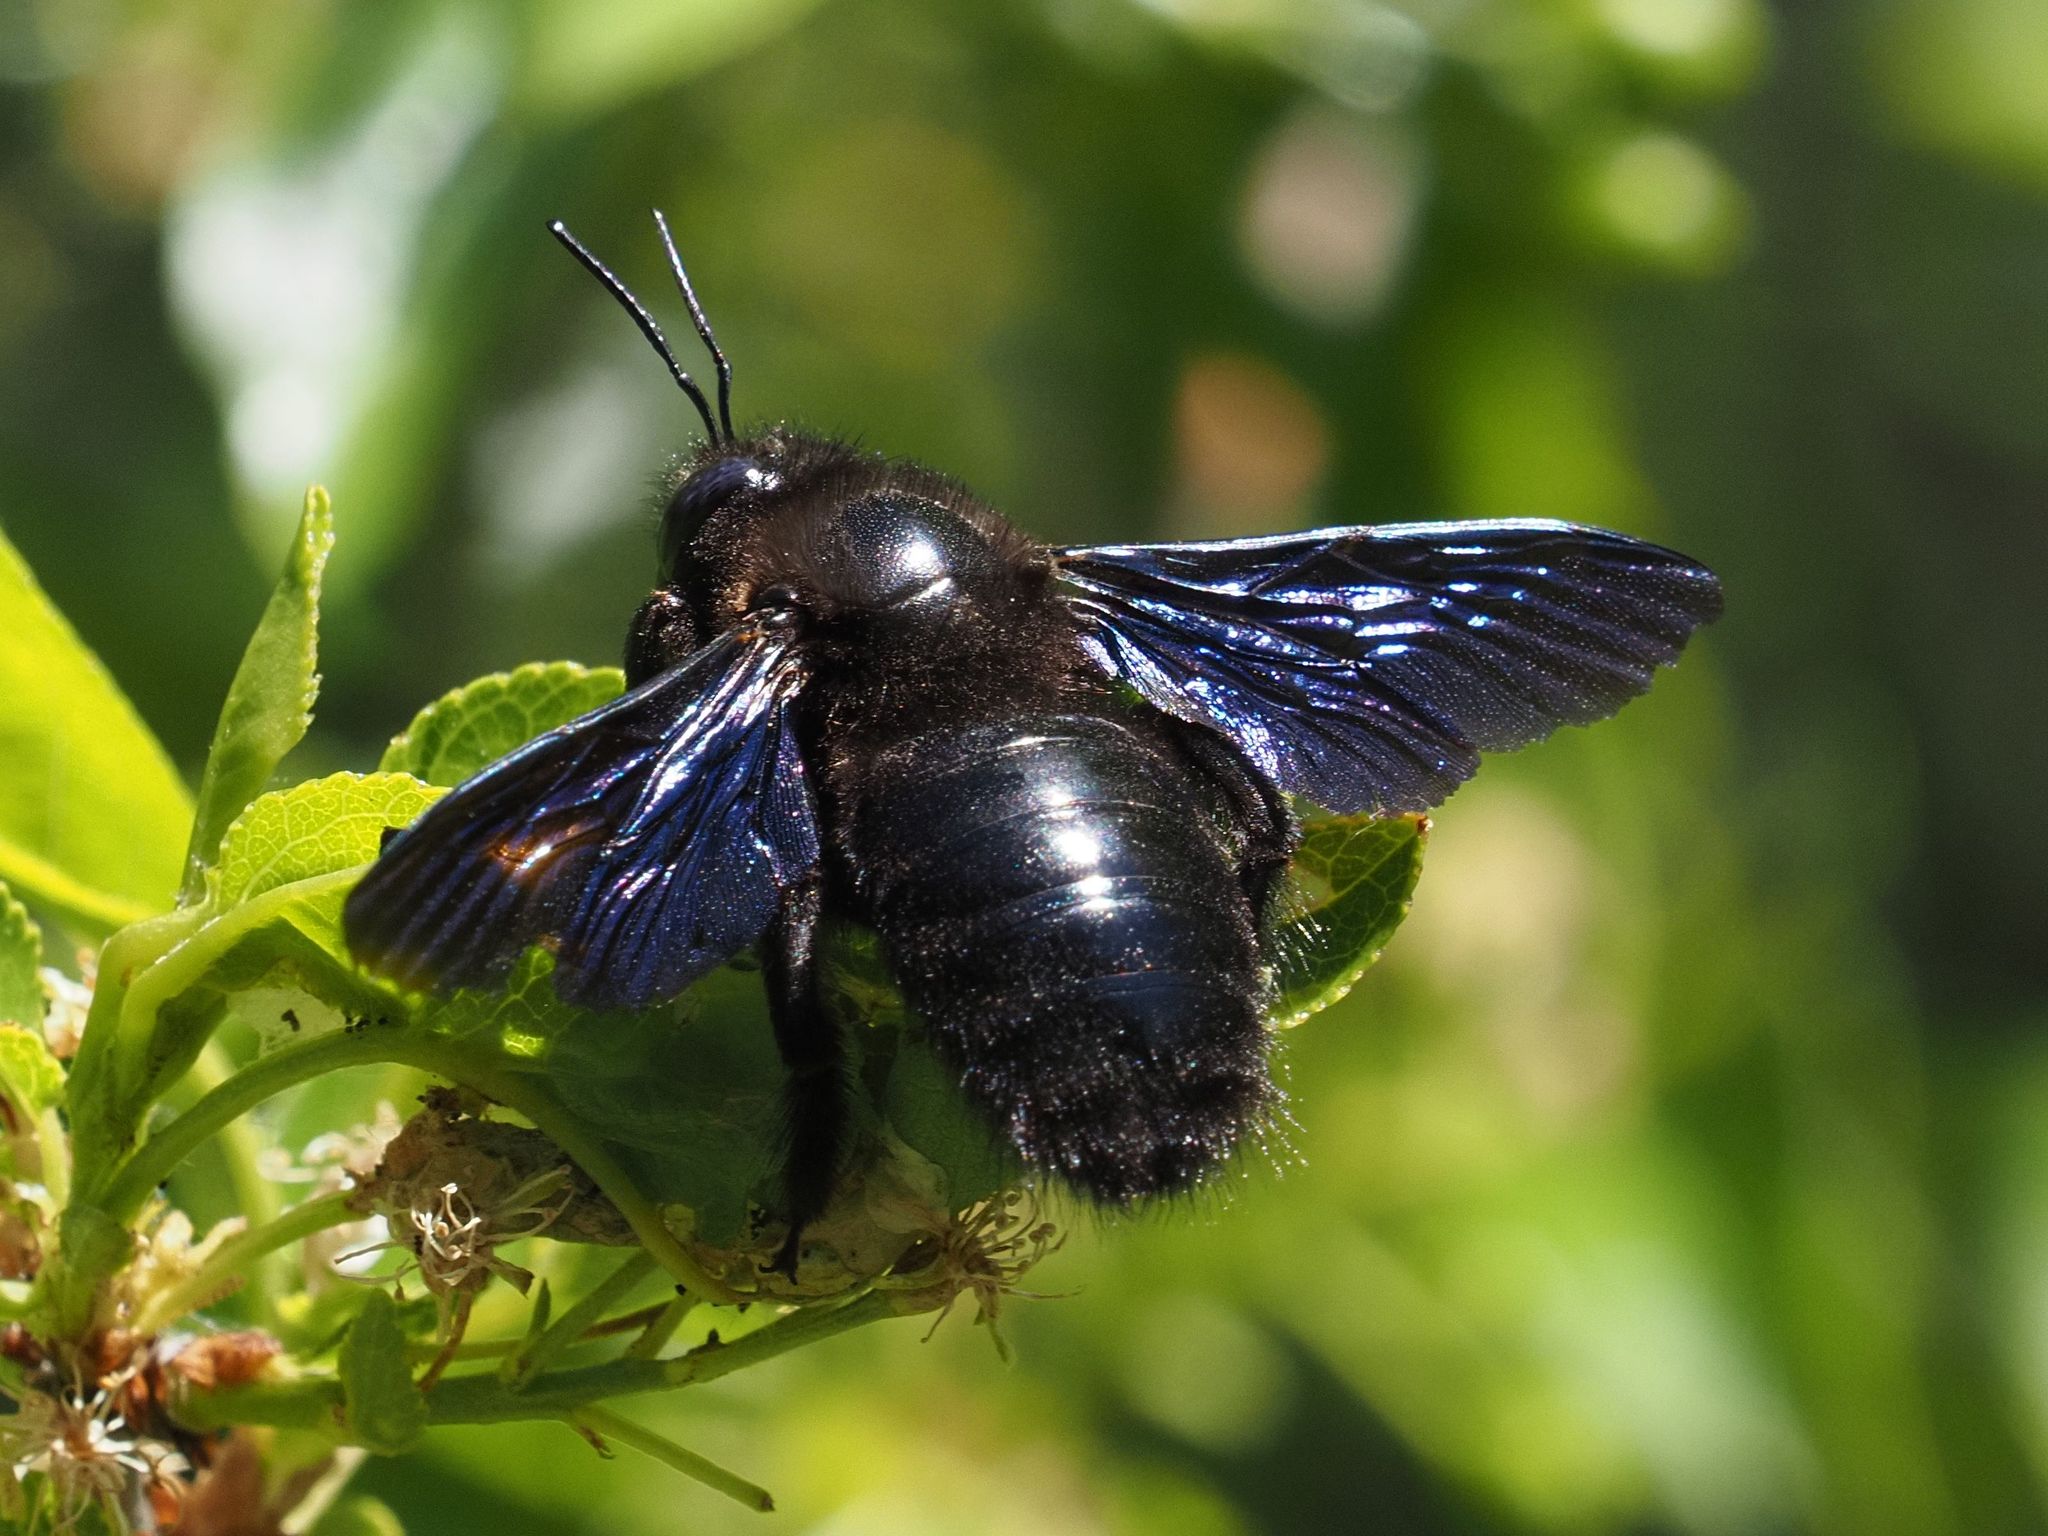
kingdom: Animalia
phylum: Arthropoda
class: Insecta
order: Hymenoptera
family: Apidae
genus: Xylocopa
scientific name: Xylocopa valga
